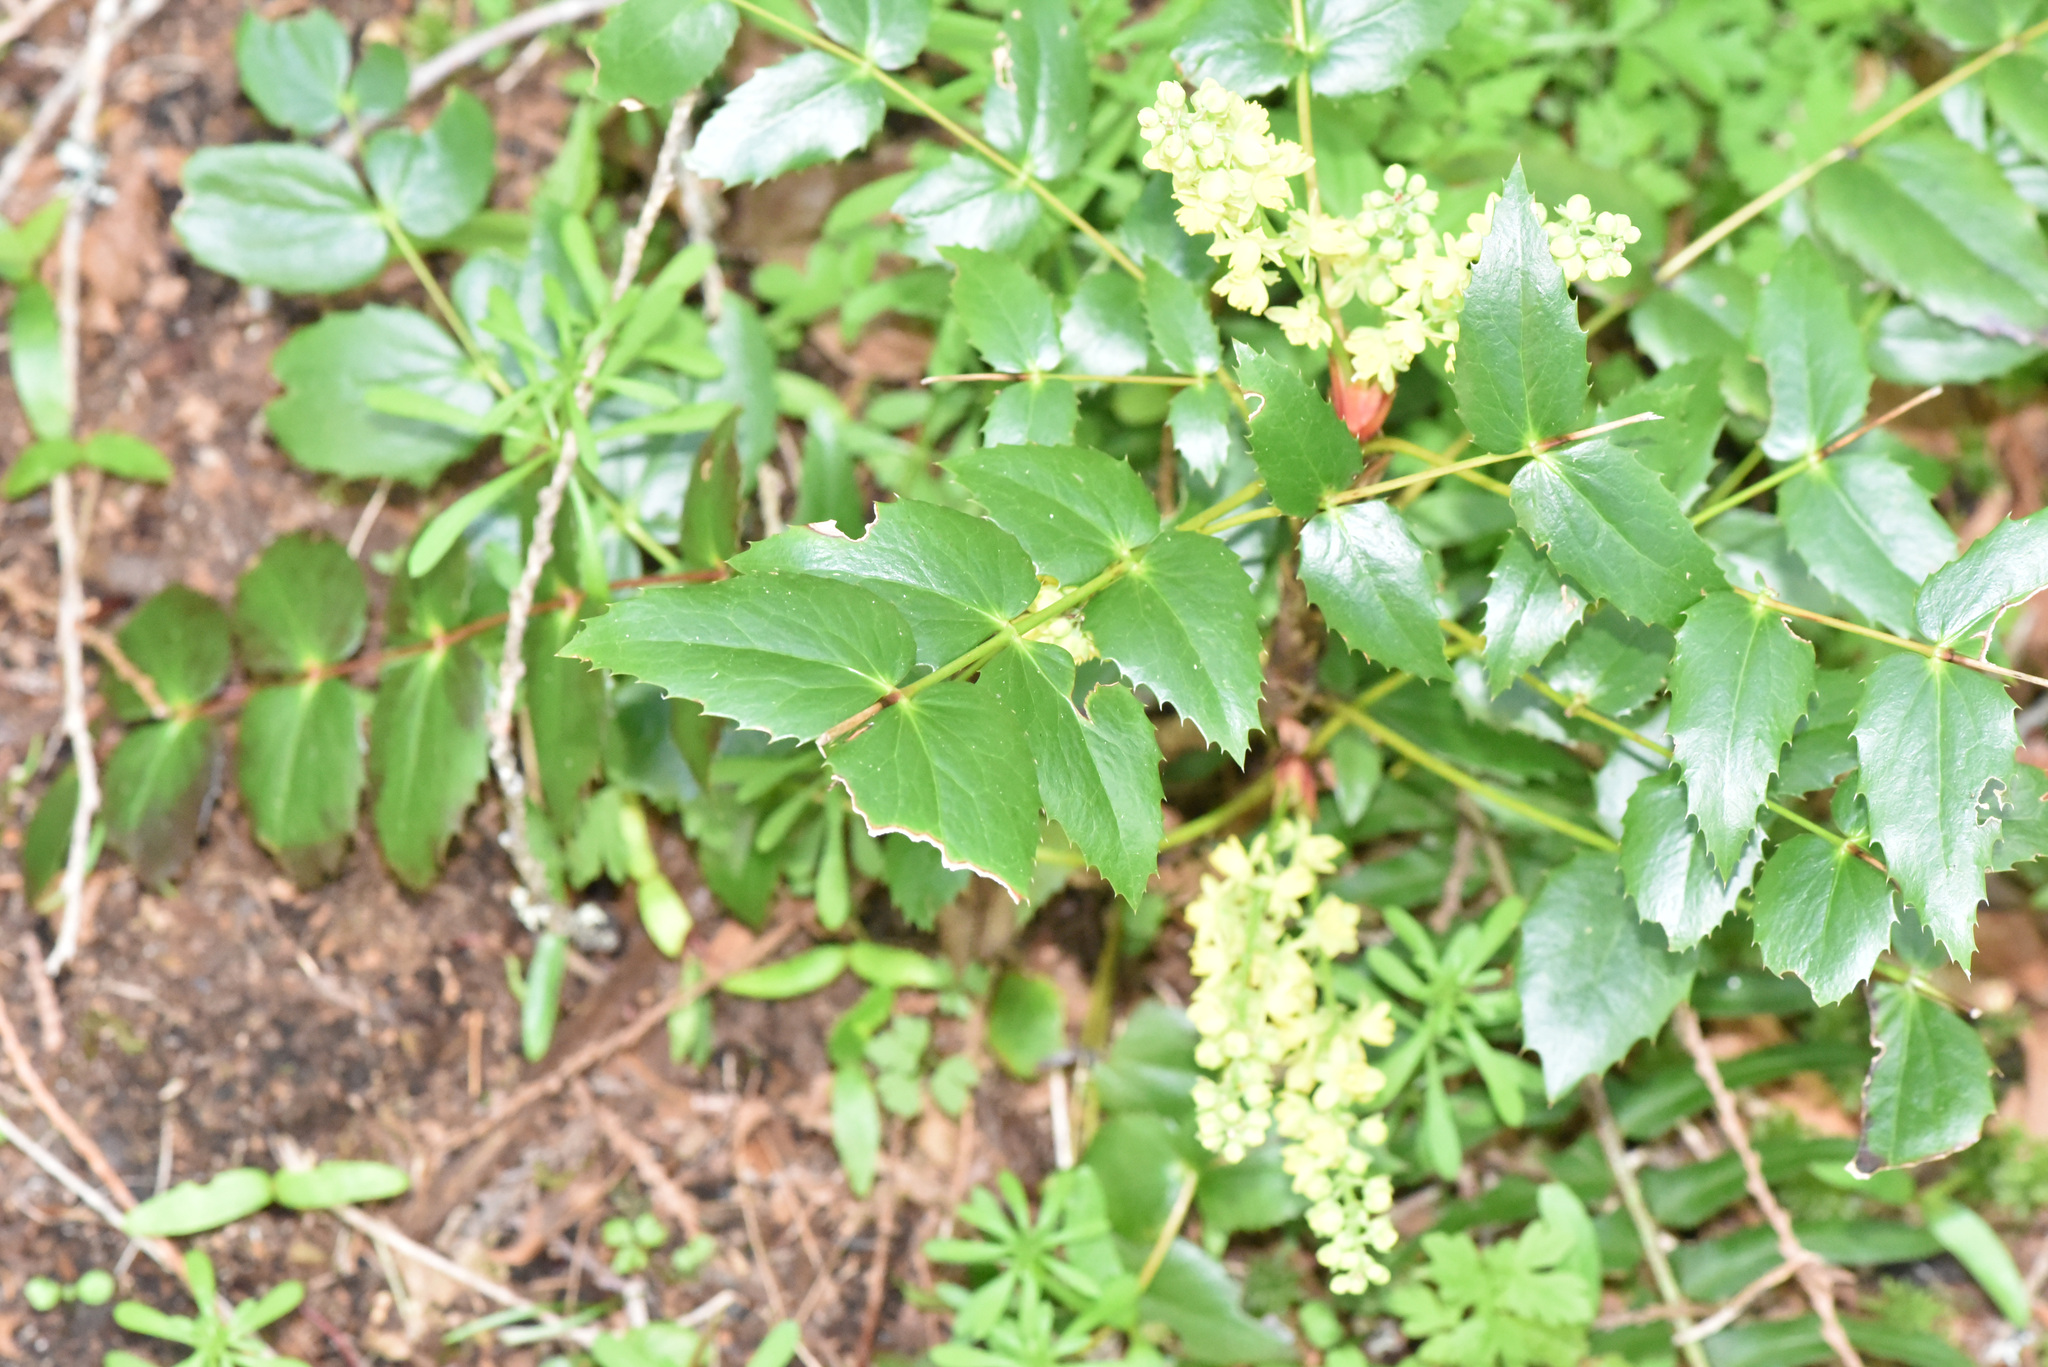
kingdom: Plantae
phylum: Tracheophyta
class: Magnoliopsida
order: Ranunculales
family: Berberidaceae
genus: Mahonia
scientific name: Mahonia nervosa
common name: Cascade oregon-grape
